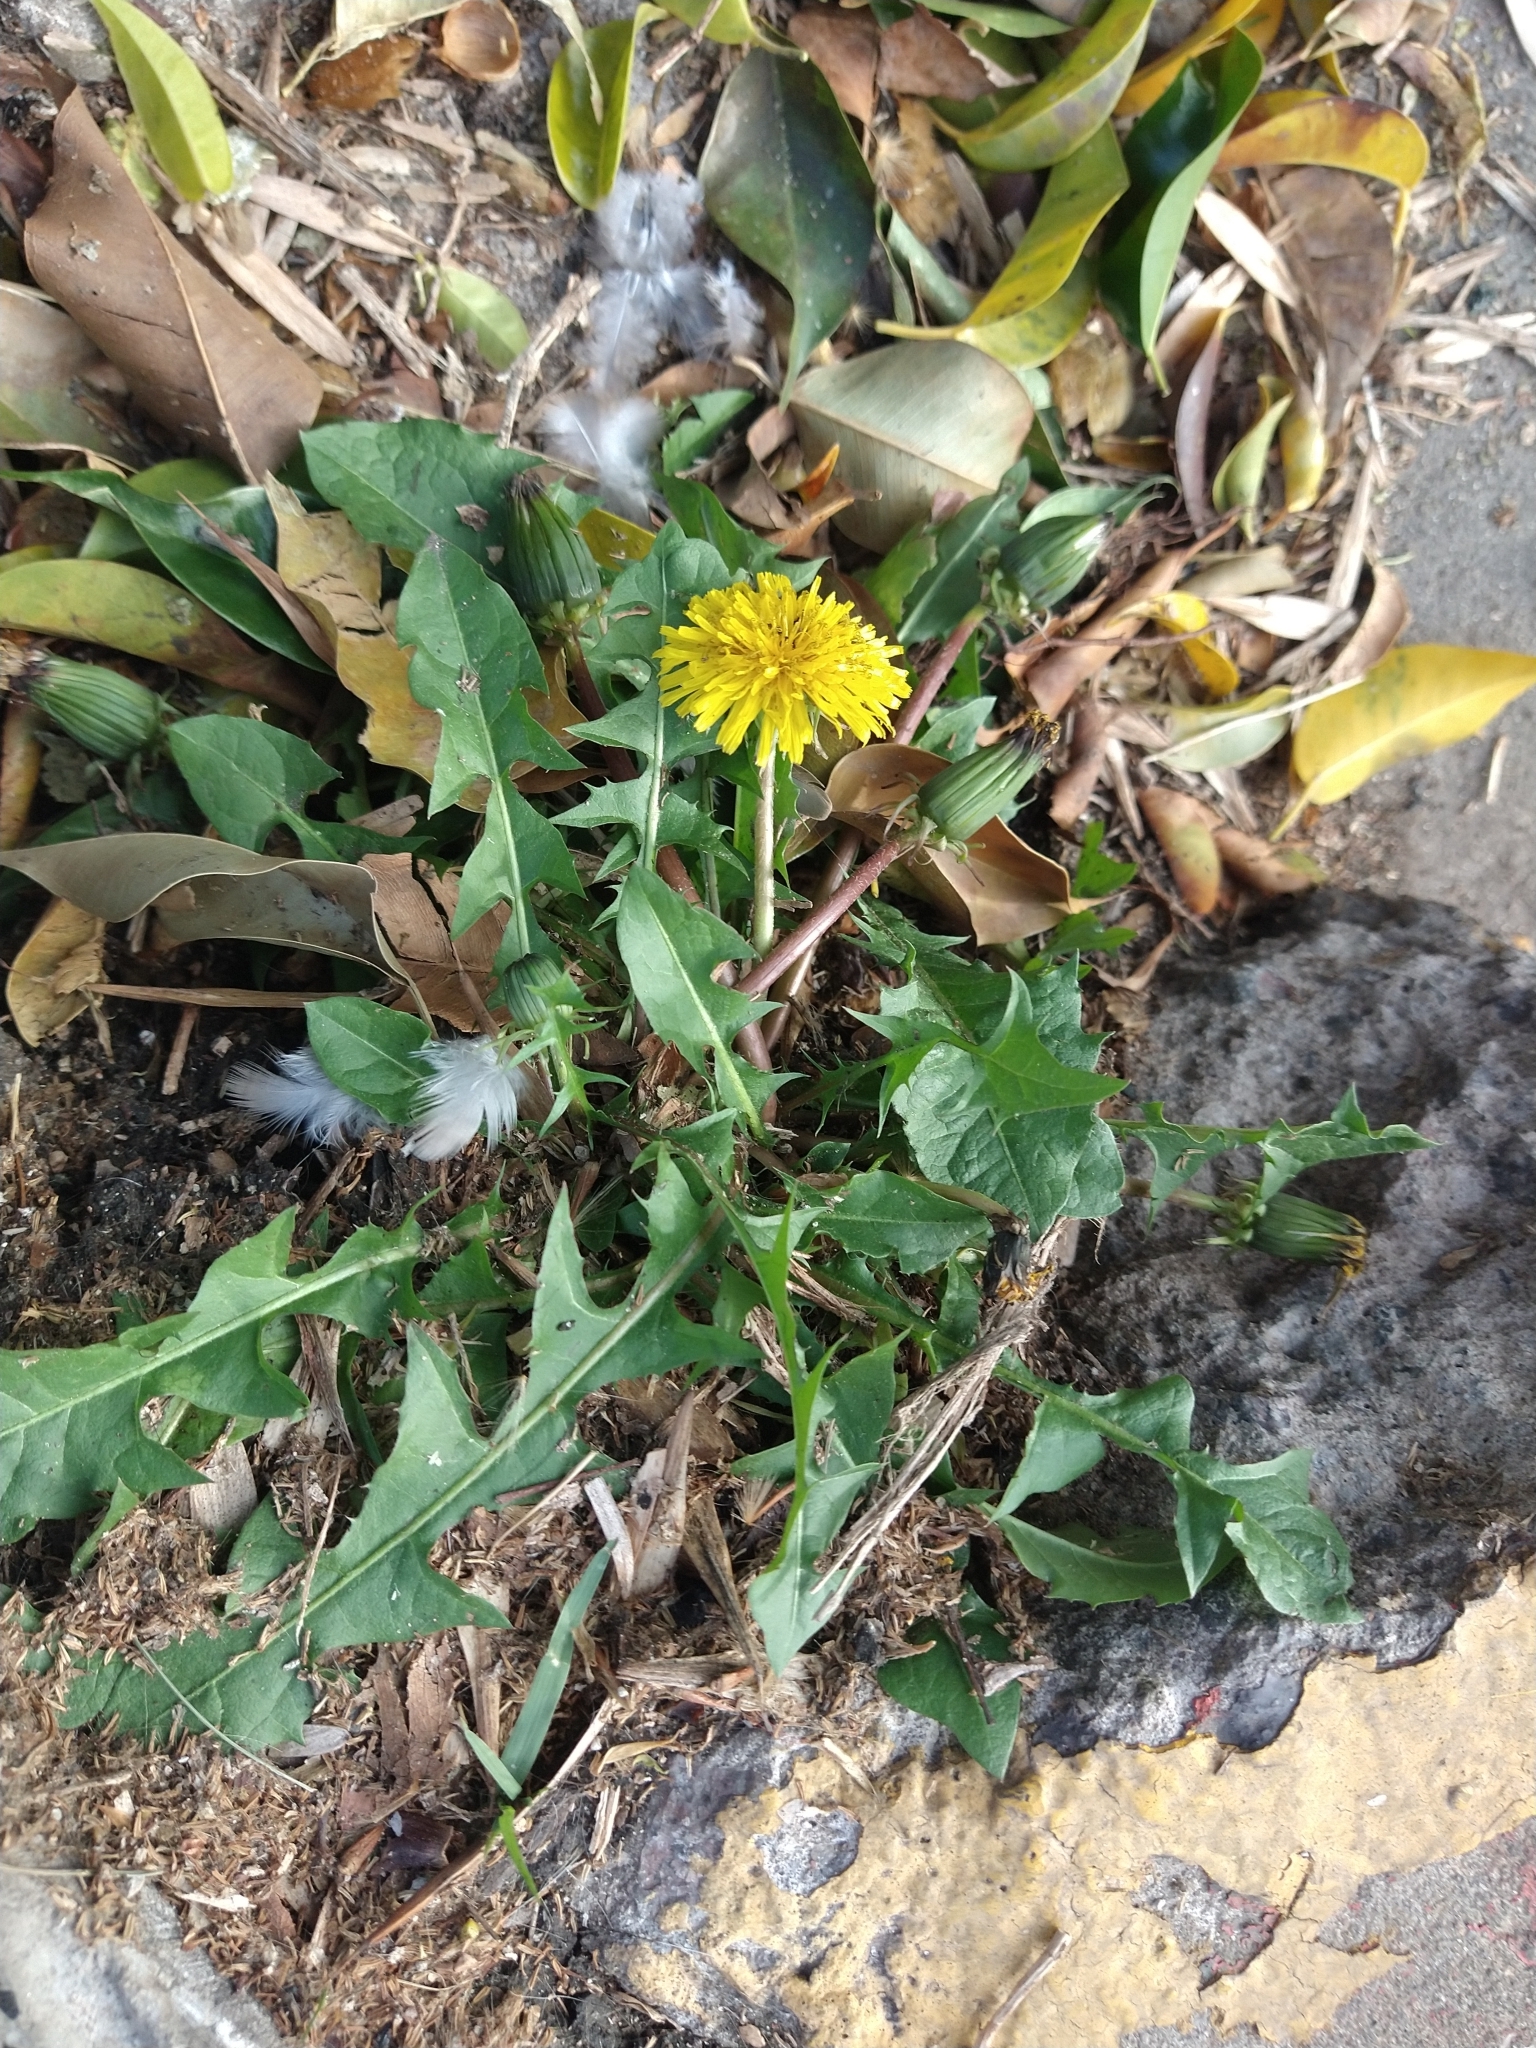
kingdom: Plantae
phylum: Tracheophyta
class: Magnoliopsida
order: Asterales
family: Asteraceae
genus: Taraxacum
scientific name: Taraxacum officinale
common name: Common dandelion
